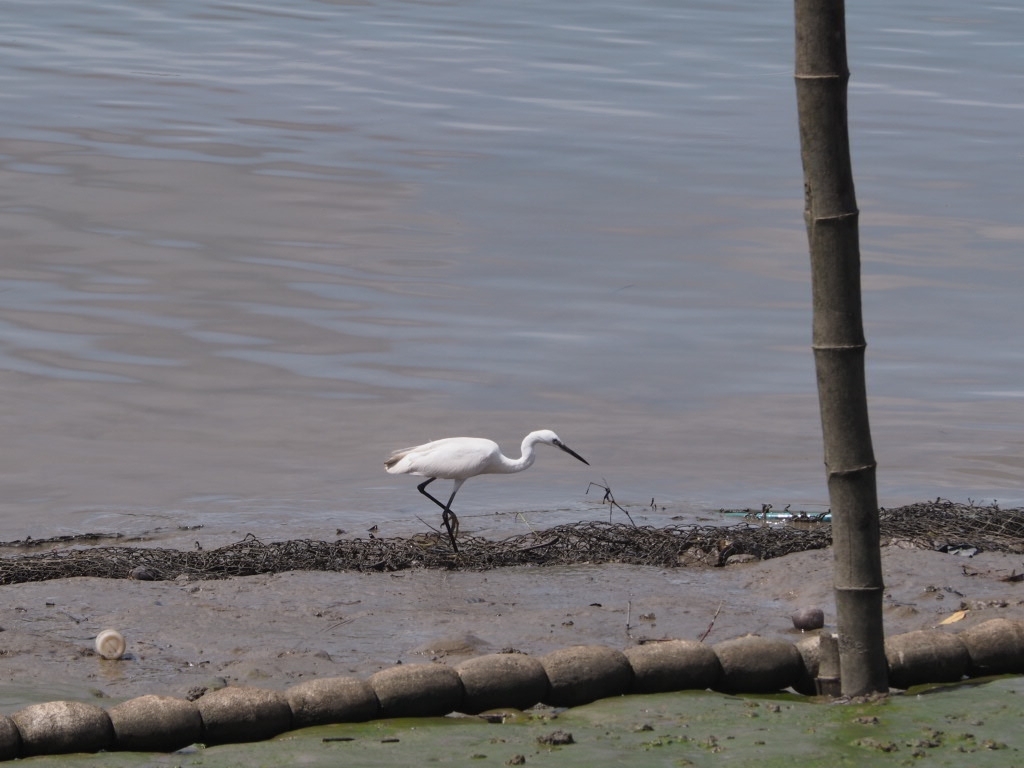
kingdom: Animalia
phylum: Chordata
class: Aves
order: Pelecaniformes
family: Ardeidae
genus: Egretta
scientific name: Egretta garzetta
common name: Little egret
